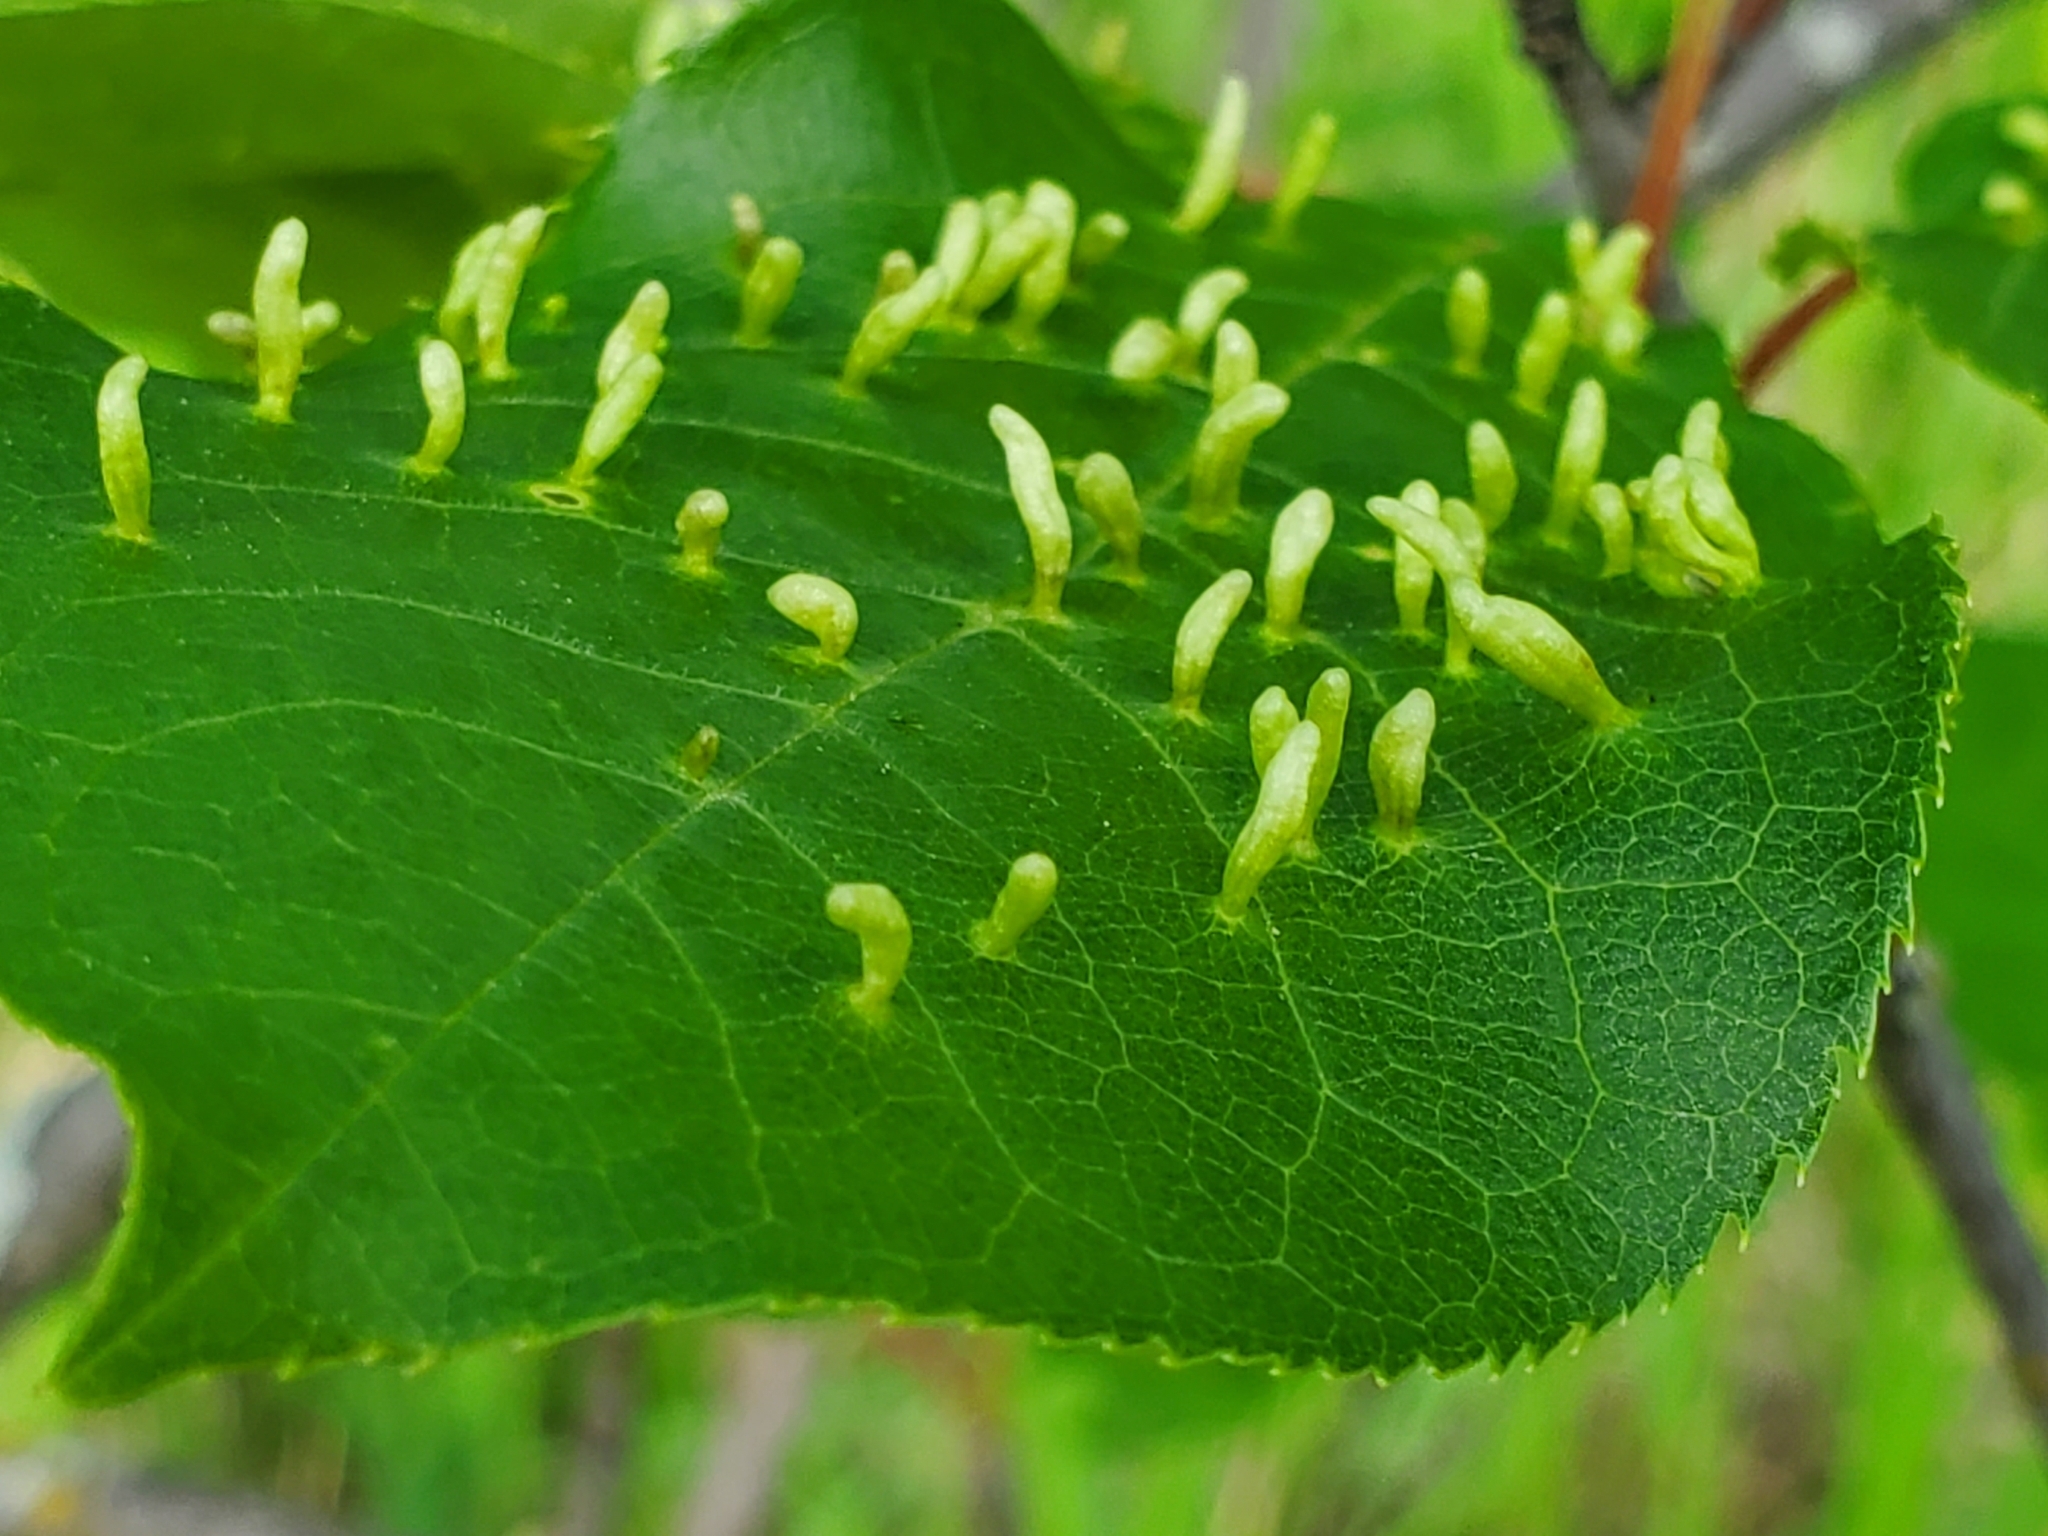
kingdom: Animalia
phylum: Arthropoda
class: Arachnida
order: Trombidiformes
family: Eriophyidae
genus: Eriophyes
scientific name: Eriophyes emarginatae
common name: Plum leaf gall mite
